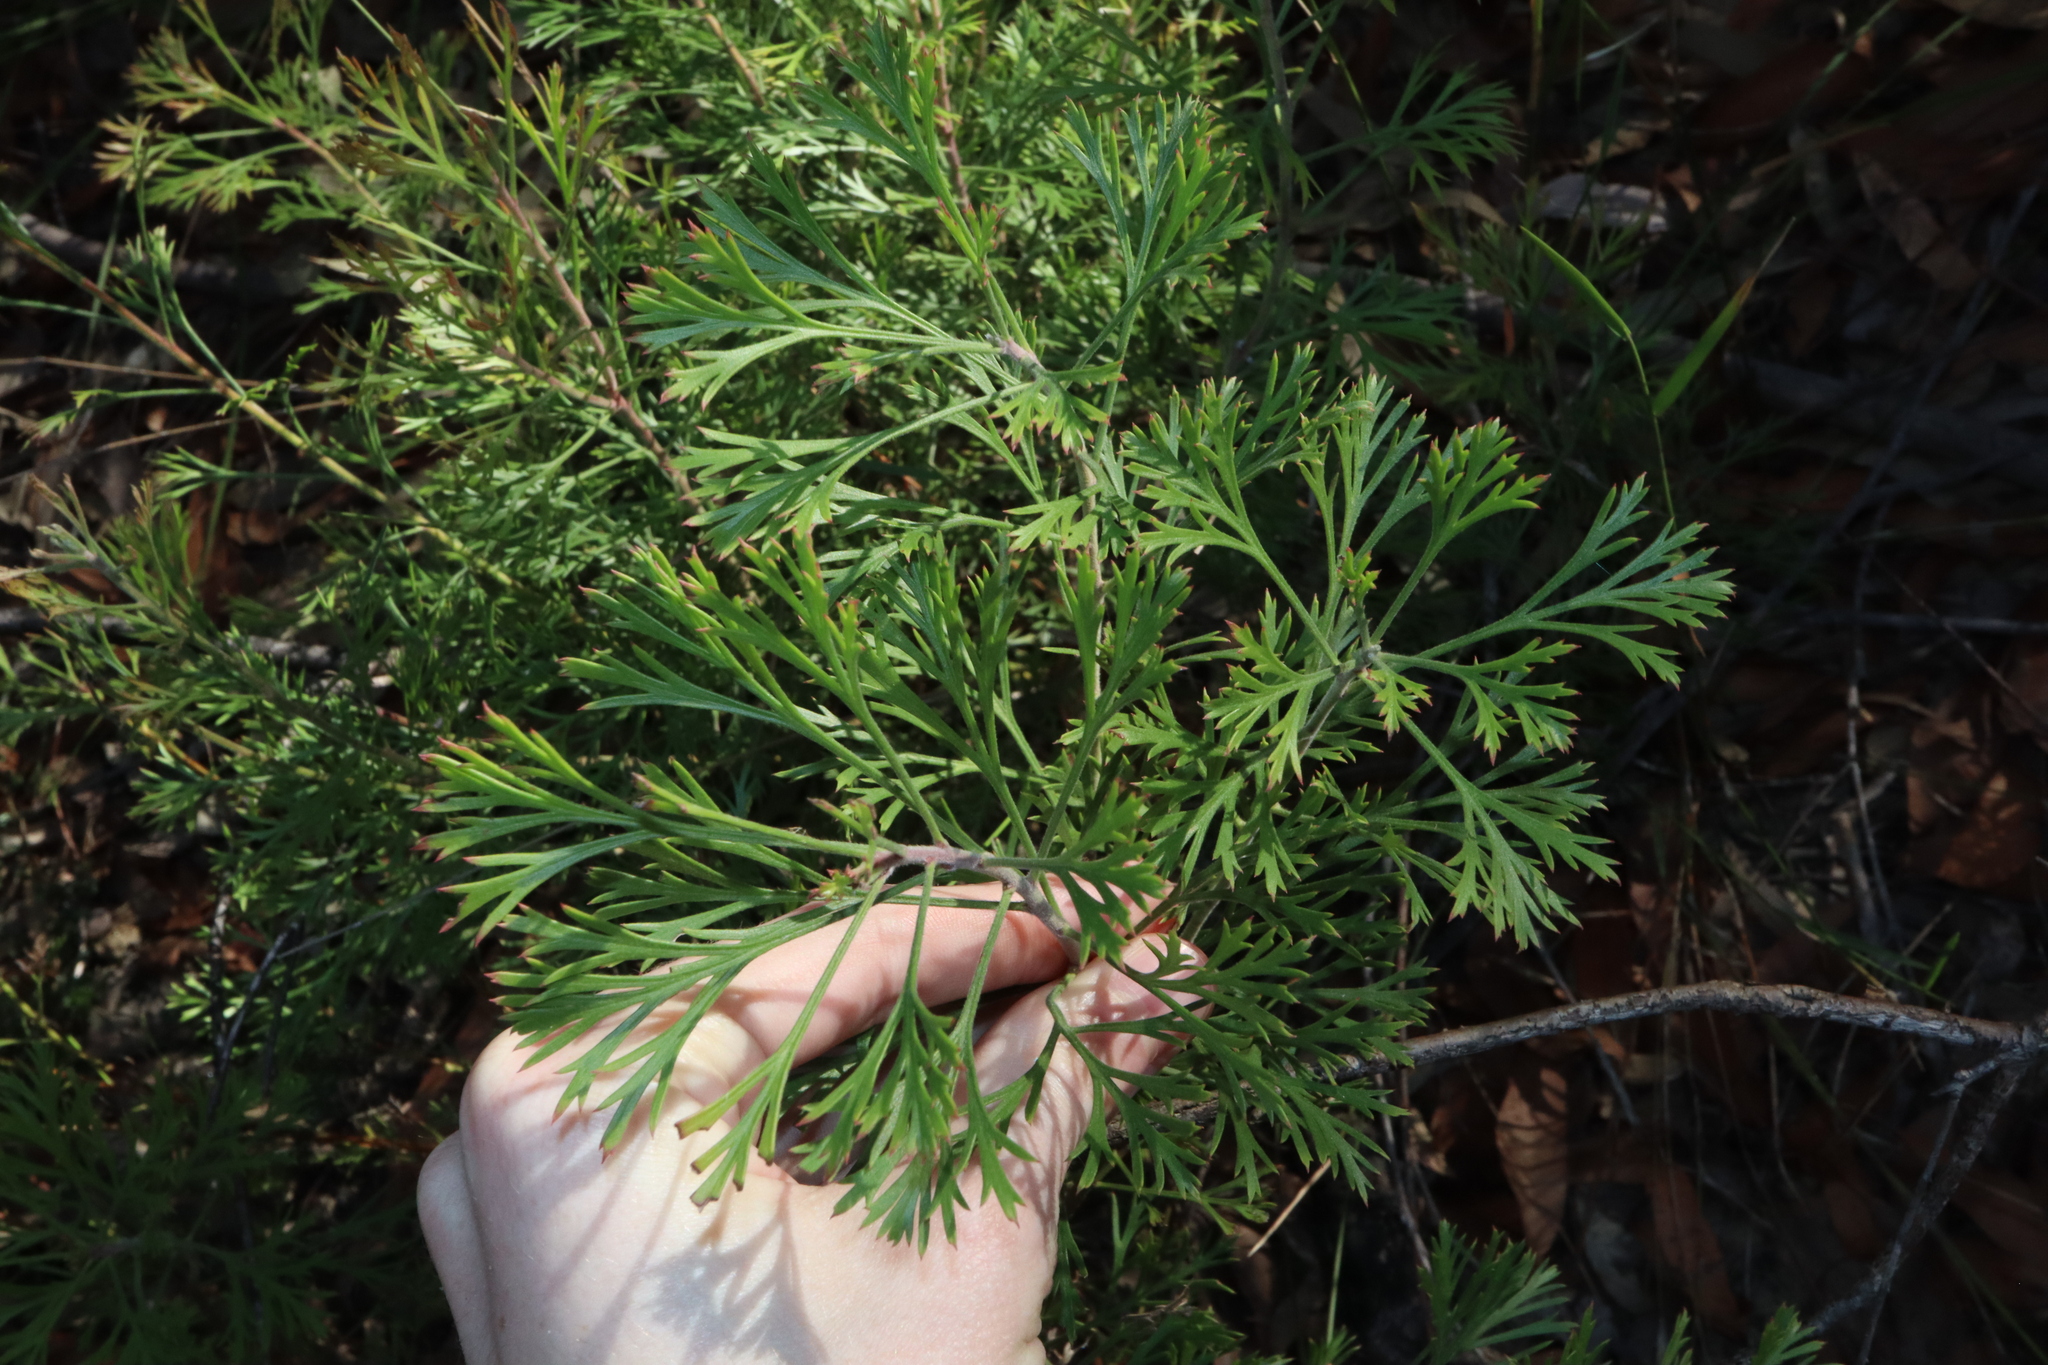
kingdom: Plantae
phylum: Tracheophyta
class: Magnoliopsida
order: Proteales
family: Proteaceae
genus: Isopogon
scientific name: Isopogon anemonifolius
